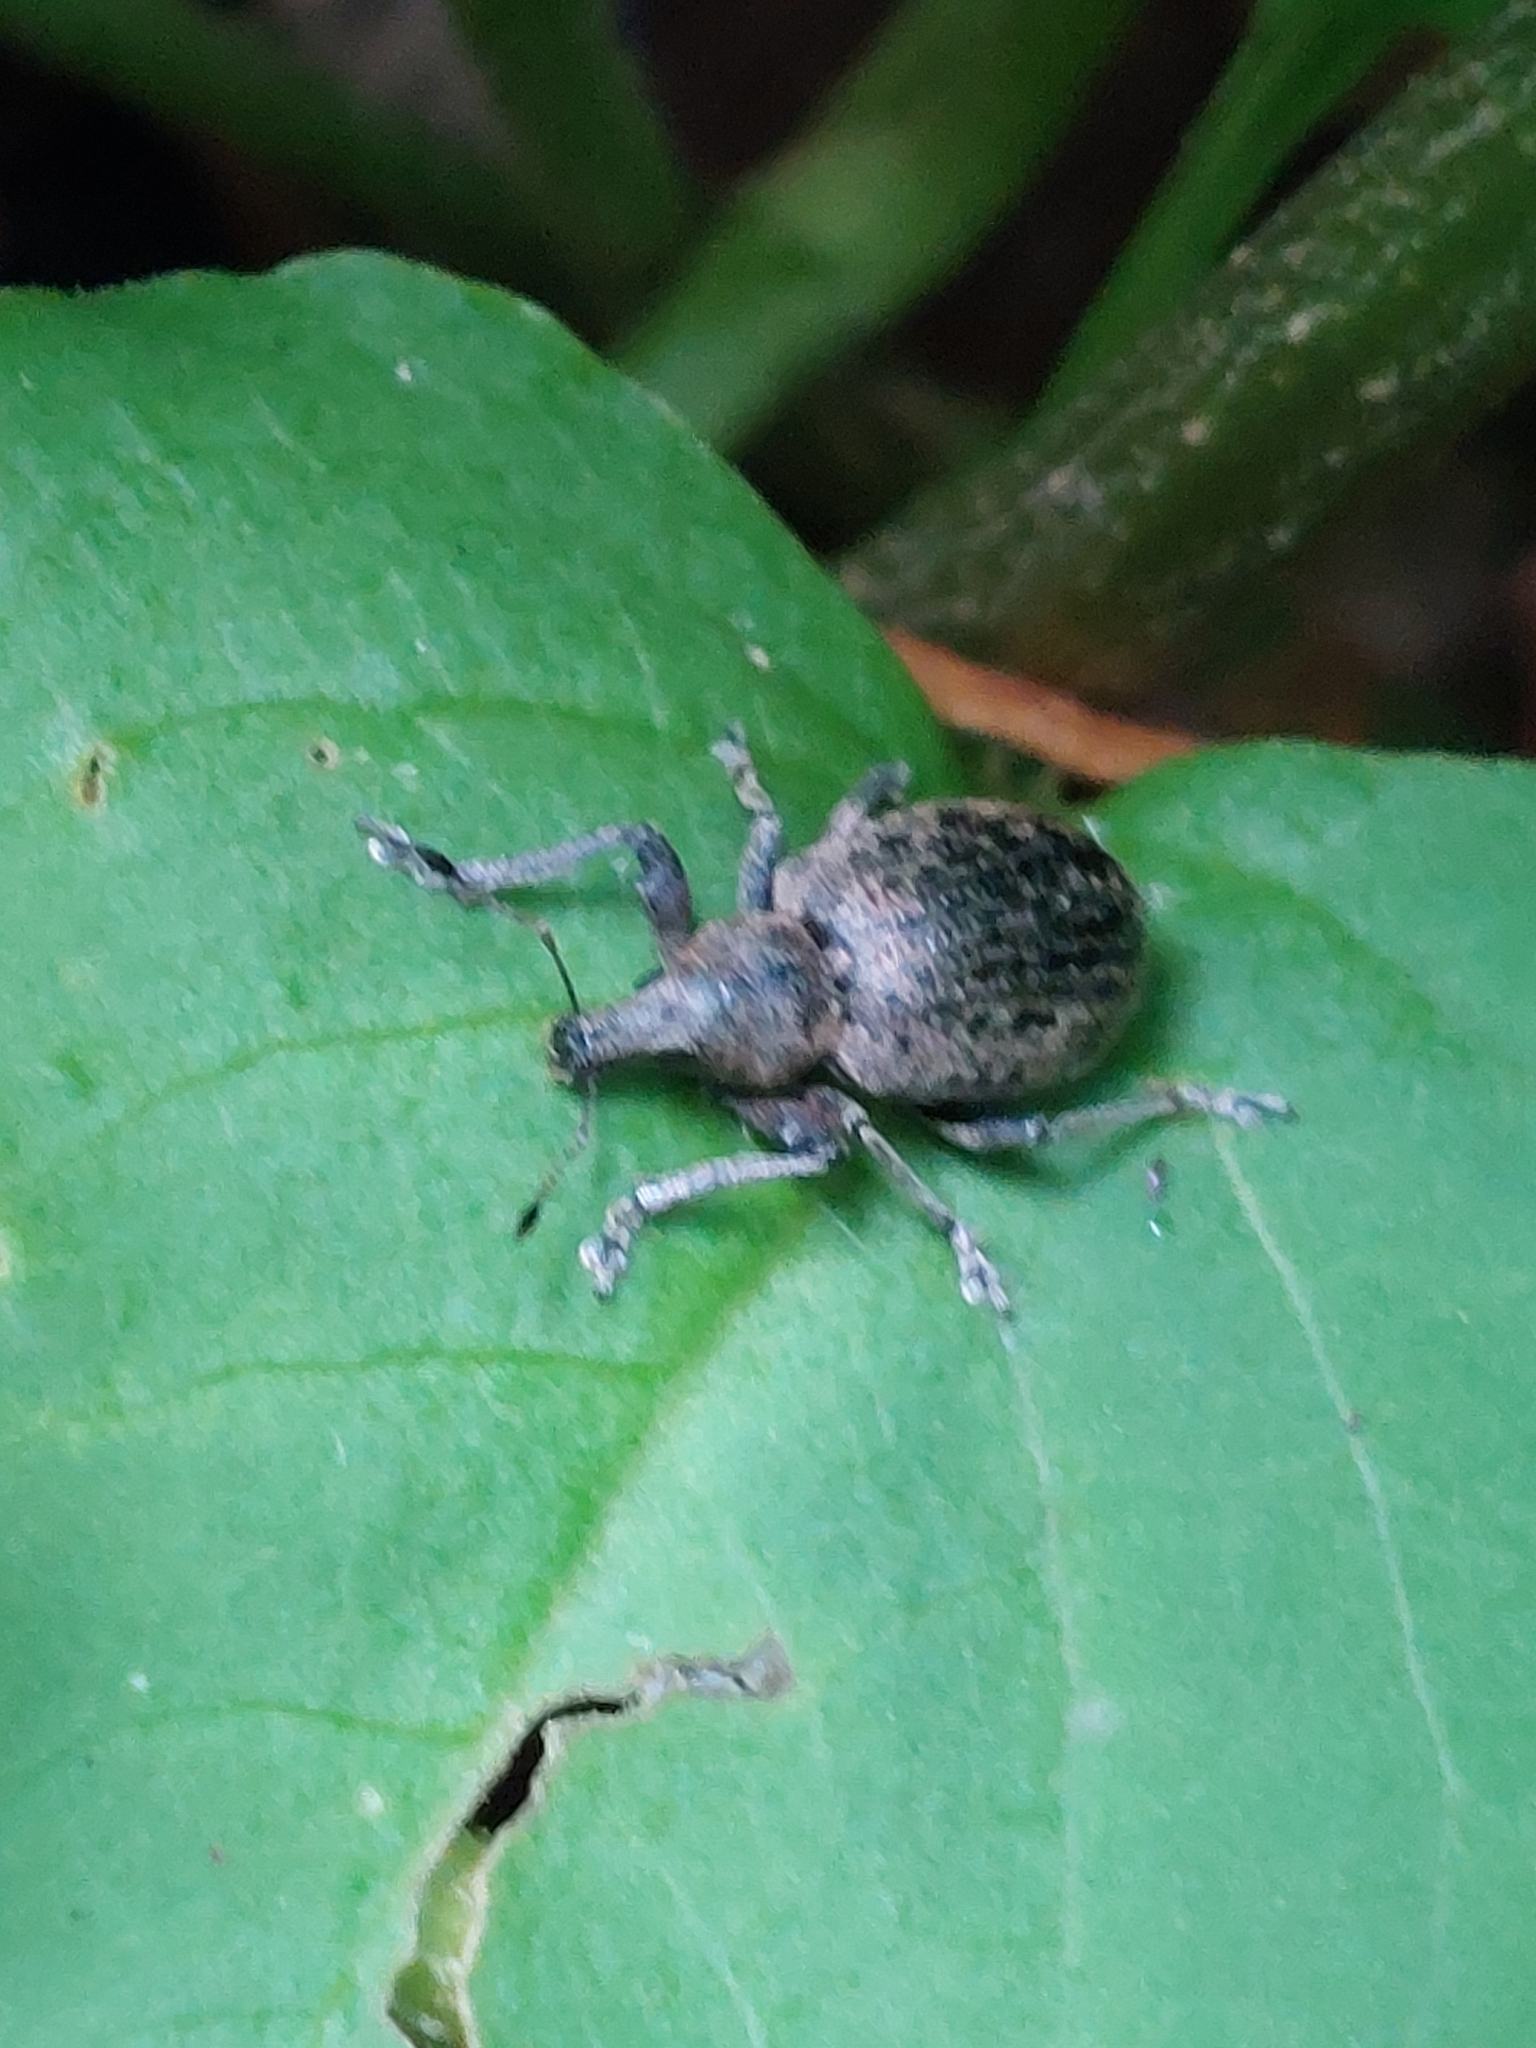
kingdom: Animalia
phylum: Arthropoda
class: Insecta
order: Coleoptera
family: Curculionidae
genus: Liophloeus
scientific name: Liophloeus tessulatus
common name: Weevil
